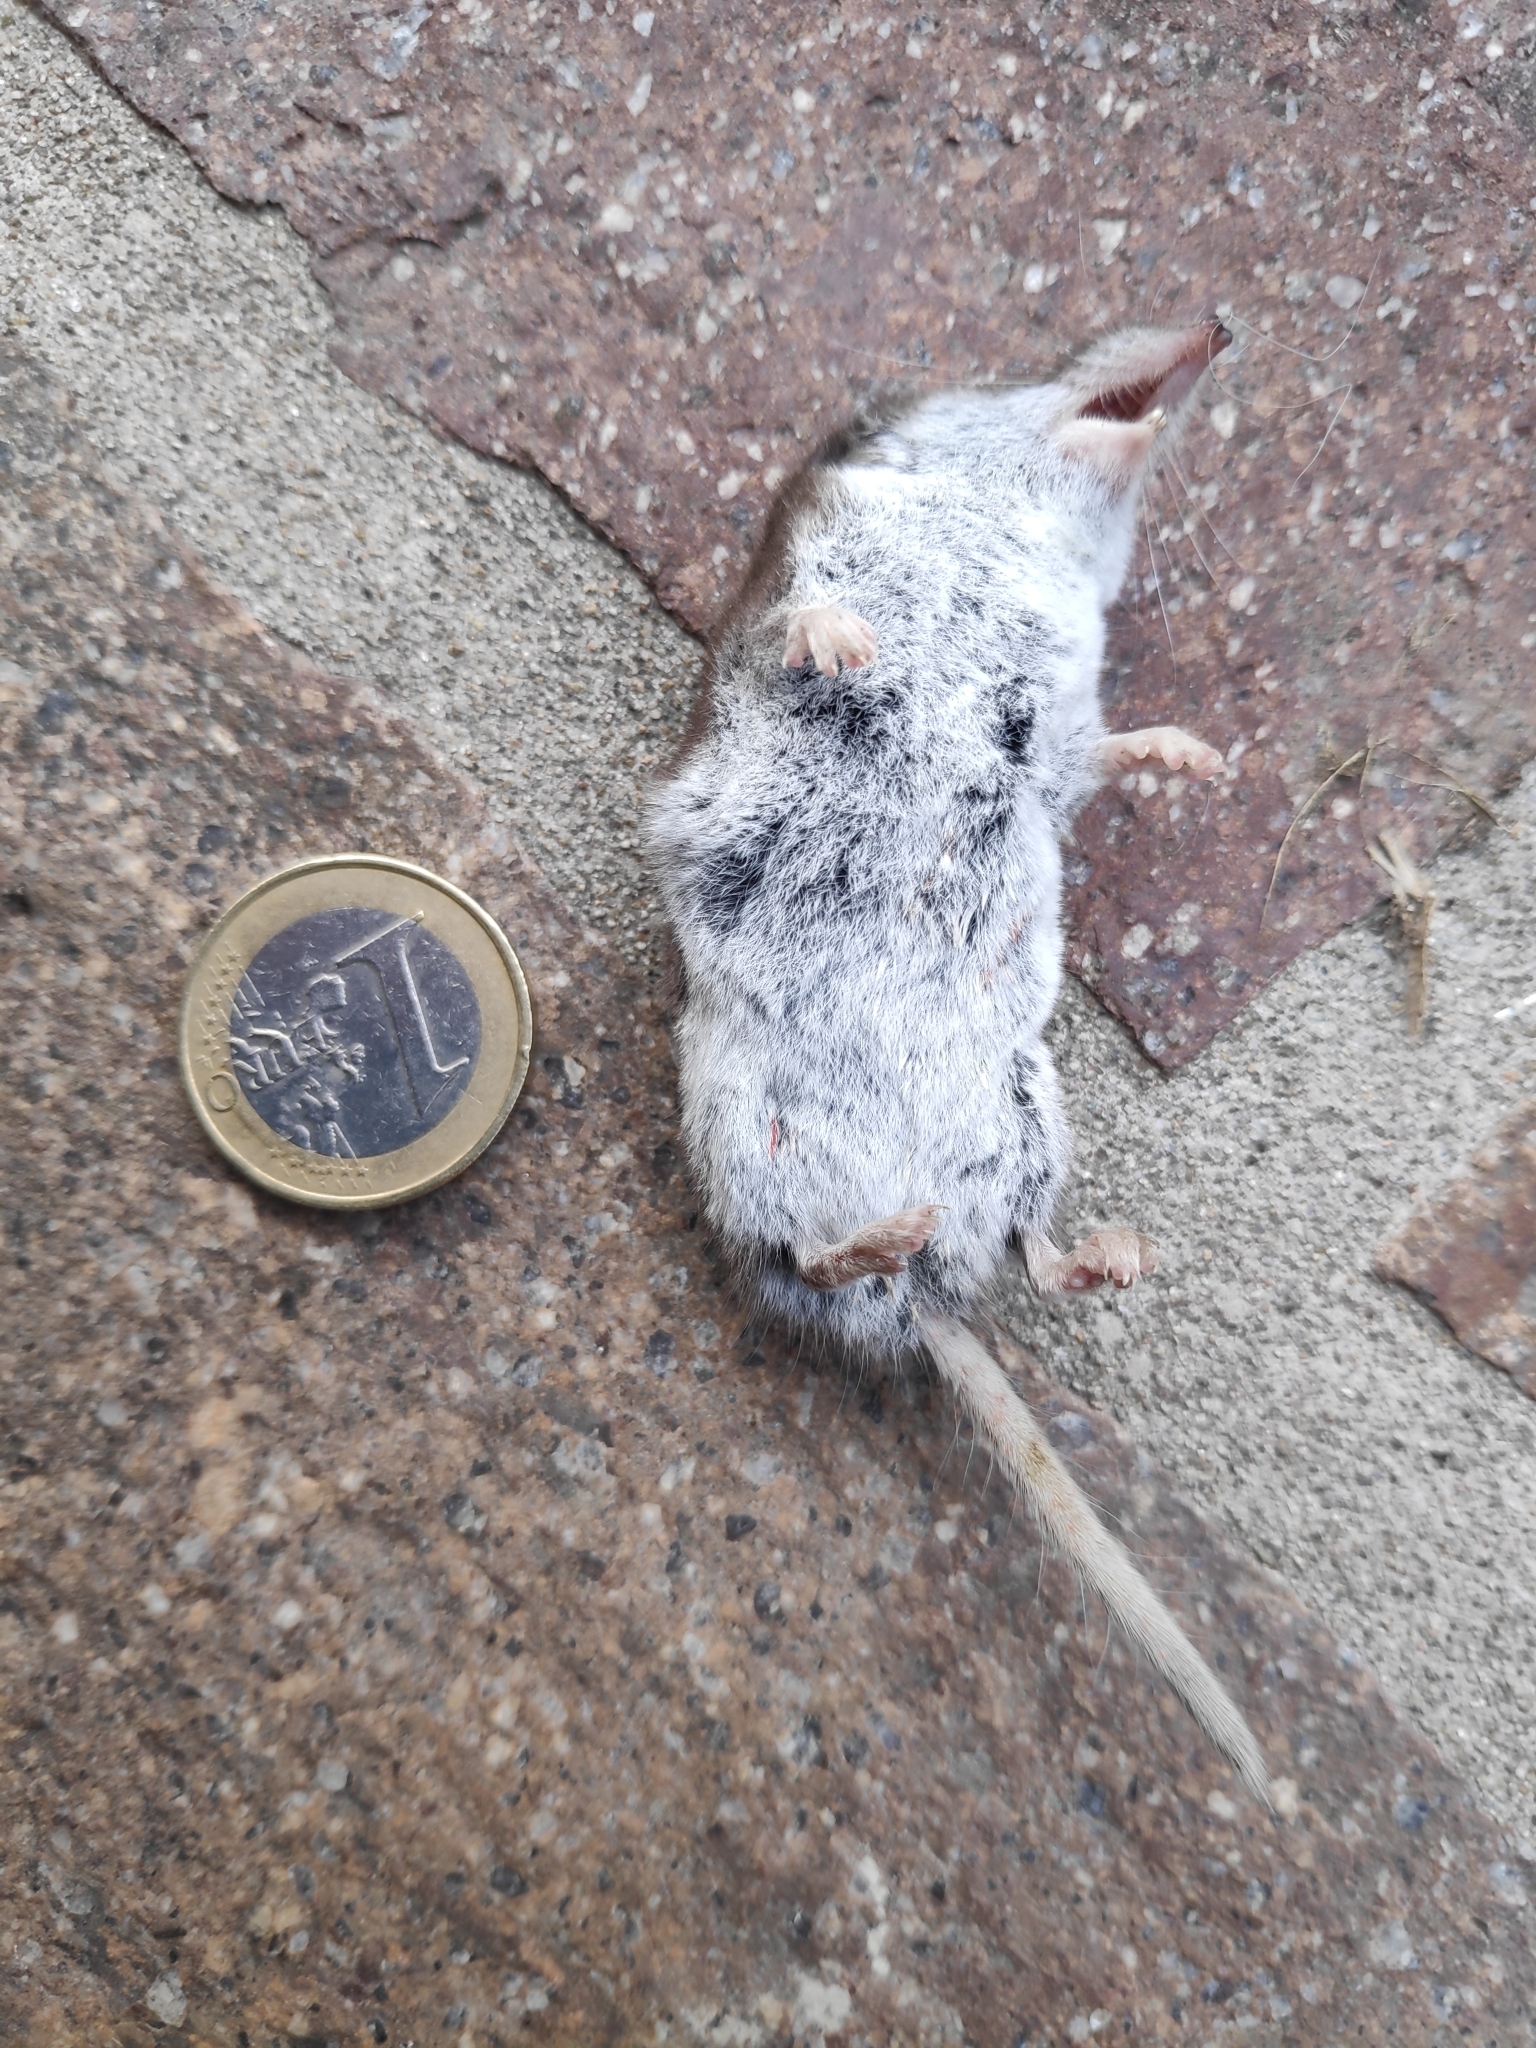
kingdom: Animalia
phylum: Chordata
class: Mammalia
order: Soricomorpha
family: Soricidae
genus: Crocidura
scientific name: Crocidura leucodon
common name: Bicolored shrew
